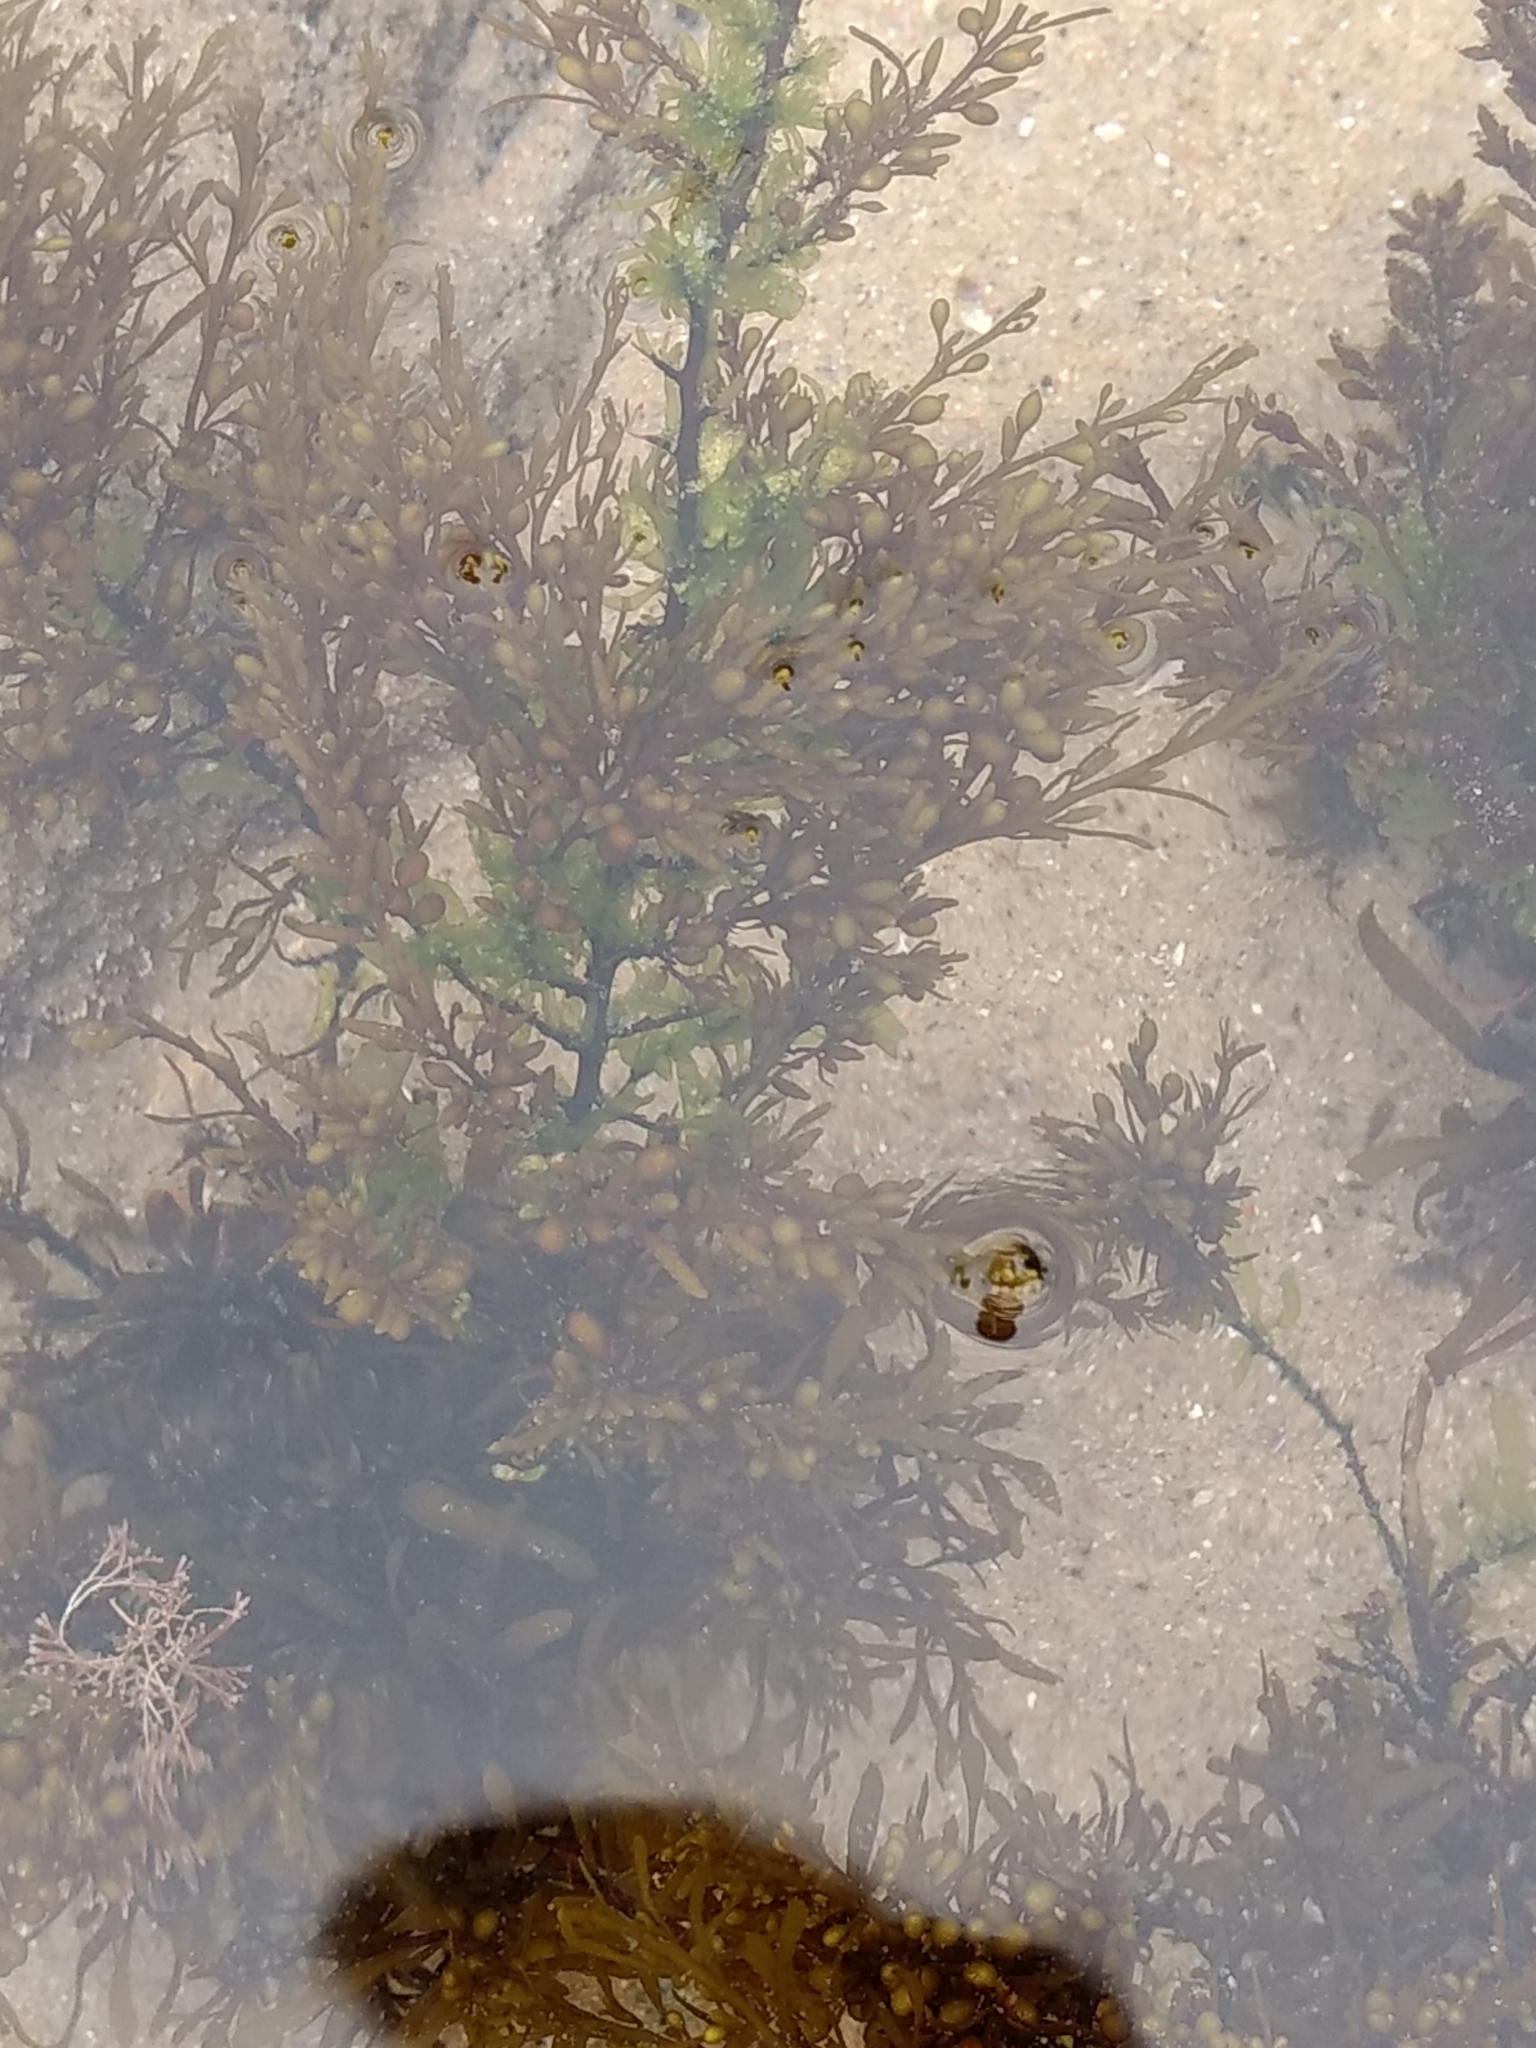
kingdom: Chromista
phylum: Ochrophyta
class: Phaeophyceae
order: Fucales
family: Sargassaceae
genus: Sargassum
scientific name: Sargassum muticum
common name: Japweed
